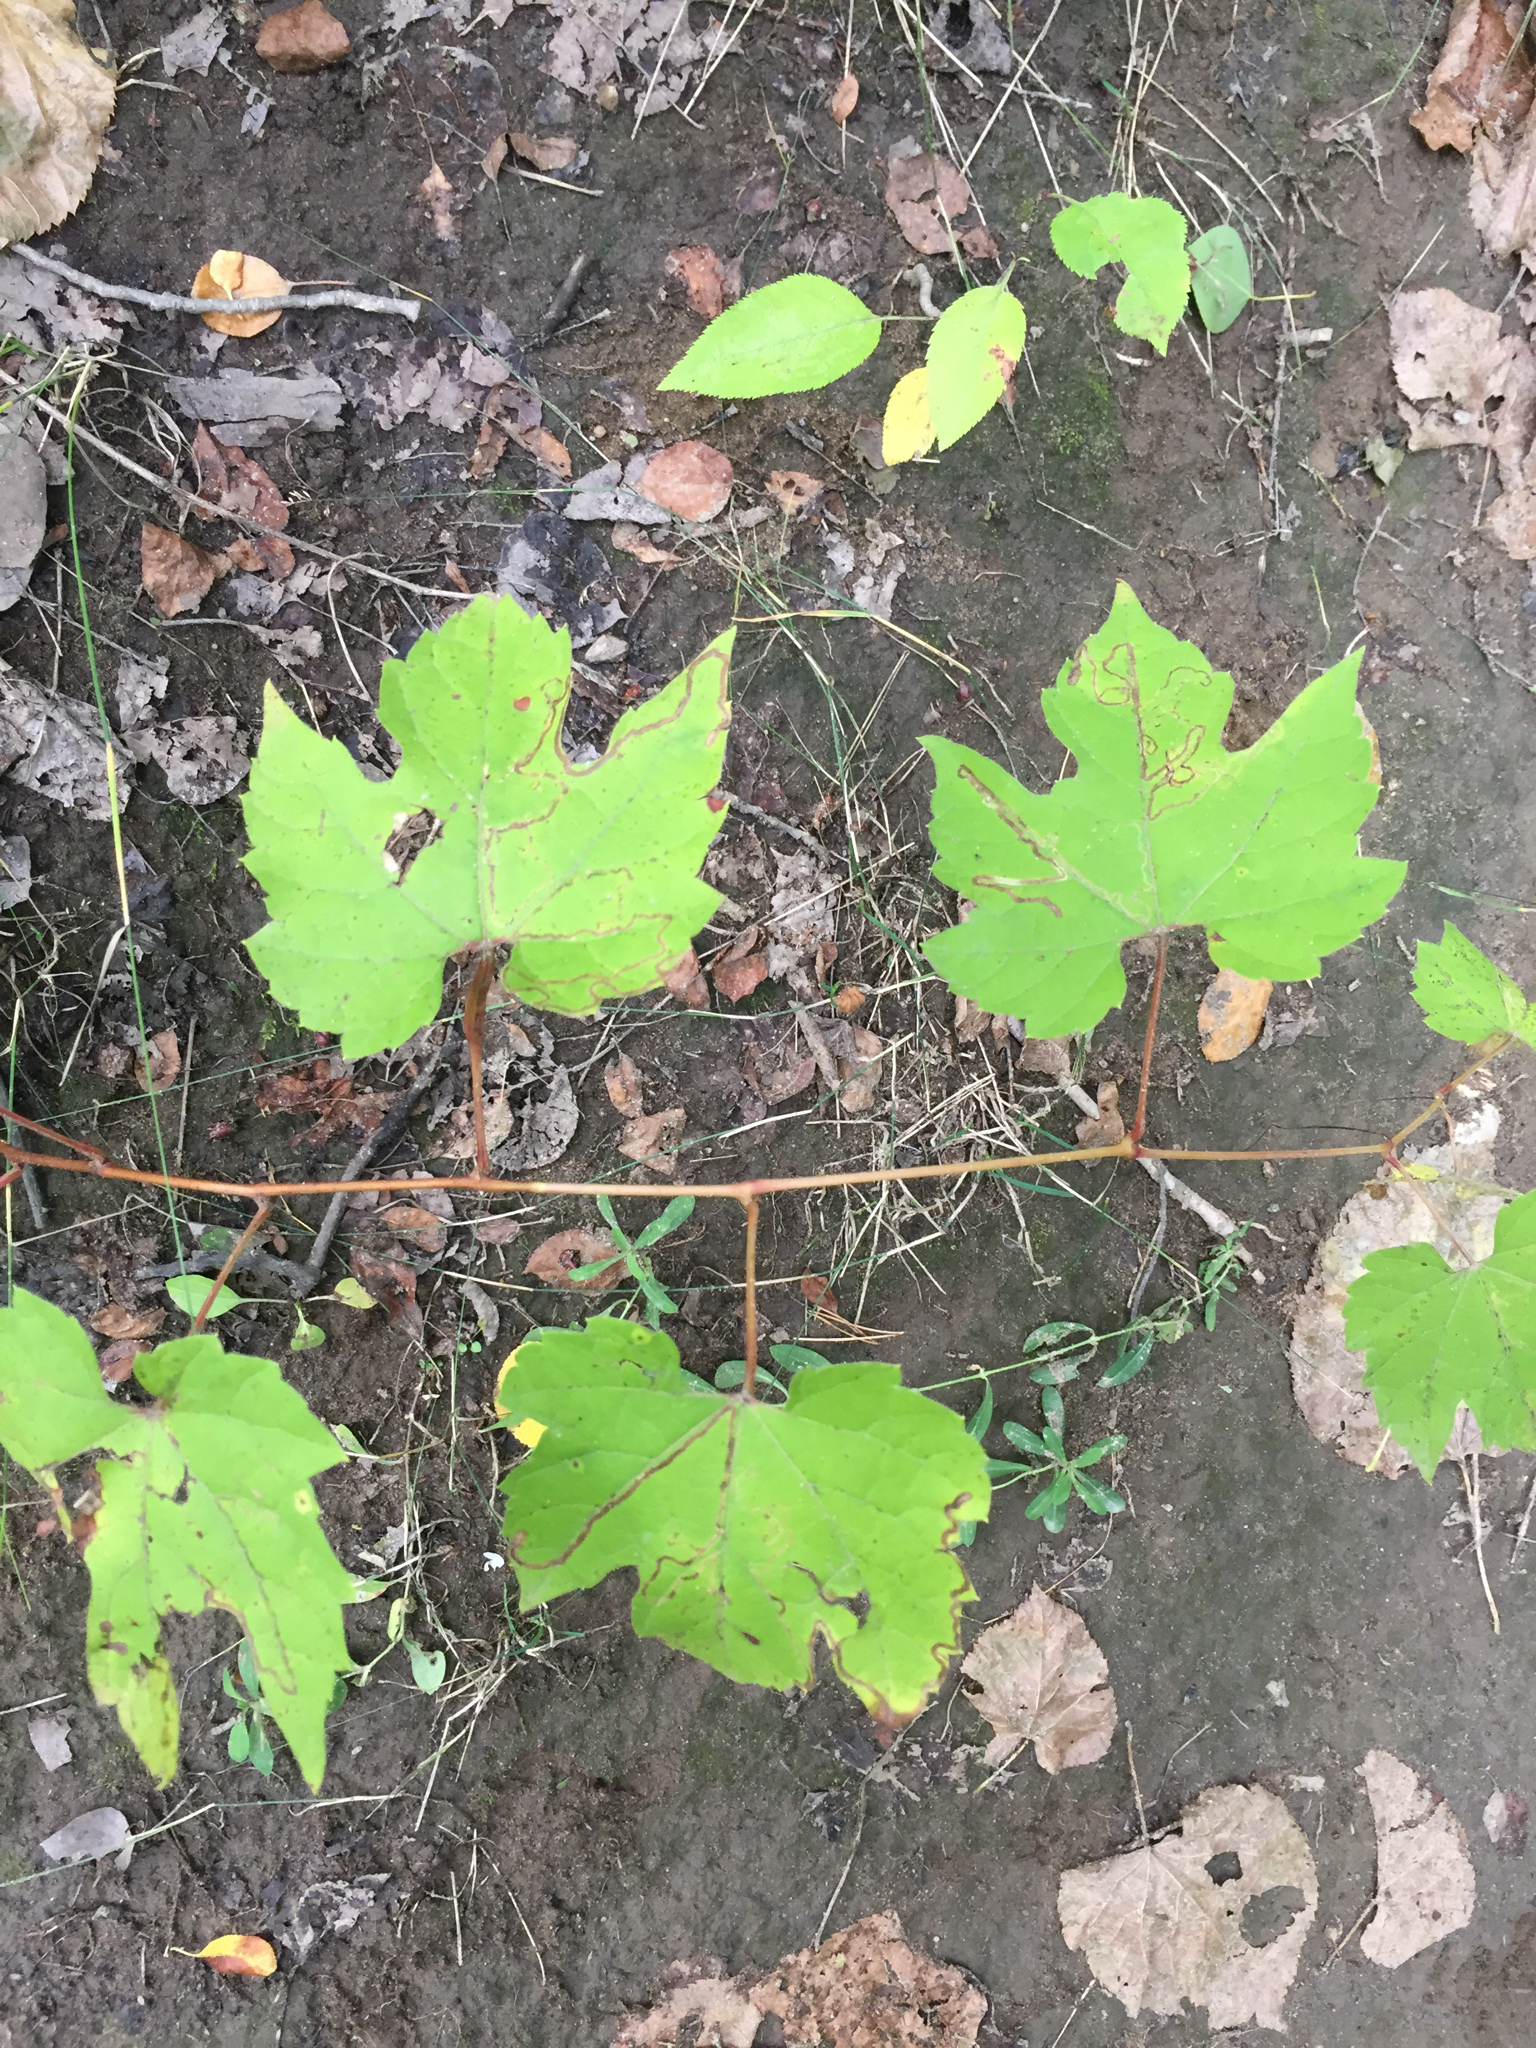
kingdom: Plantae
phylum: Tracheophyta
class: Magnoliopsida
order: Vitales
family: Vitaceae
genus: Vitis
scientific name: Vitis riparia
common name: Frost grape
